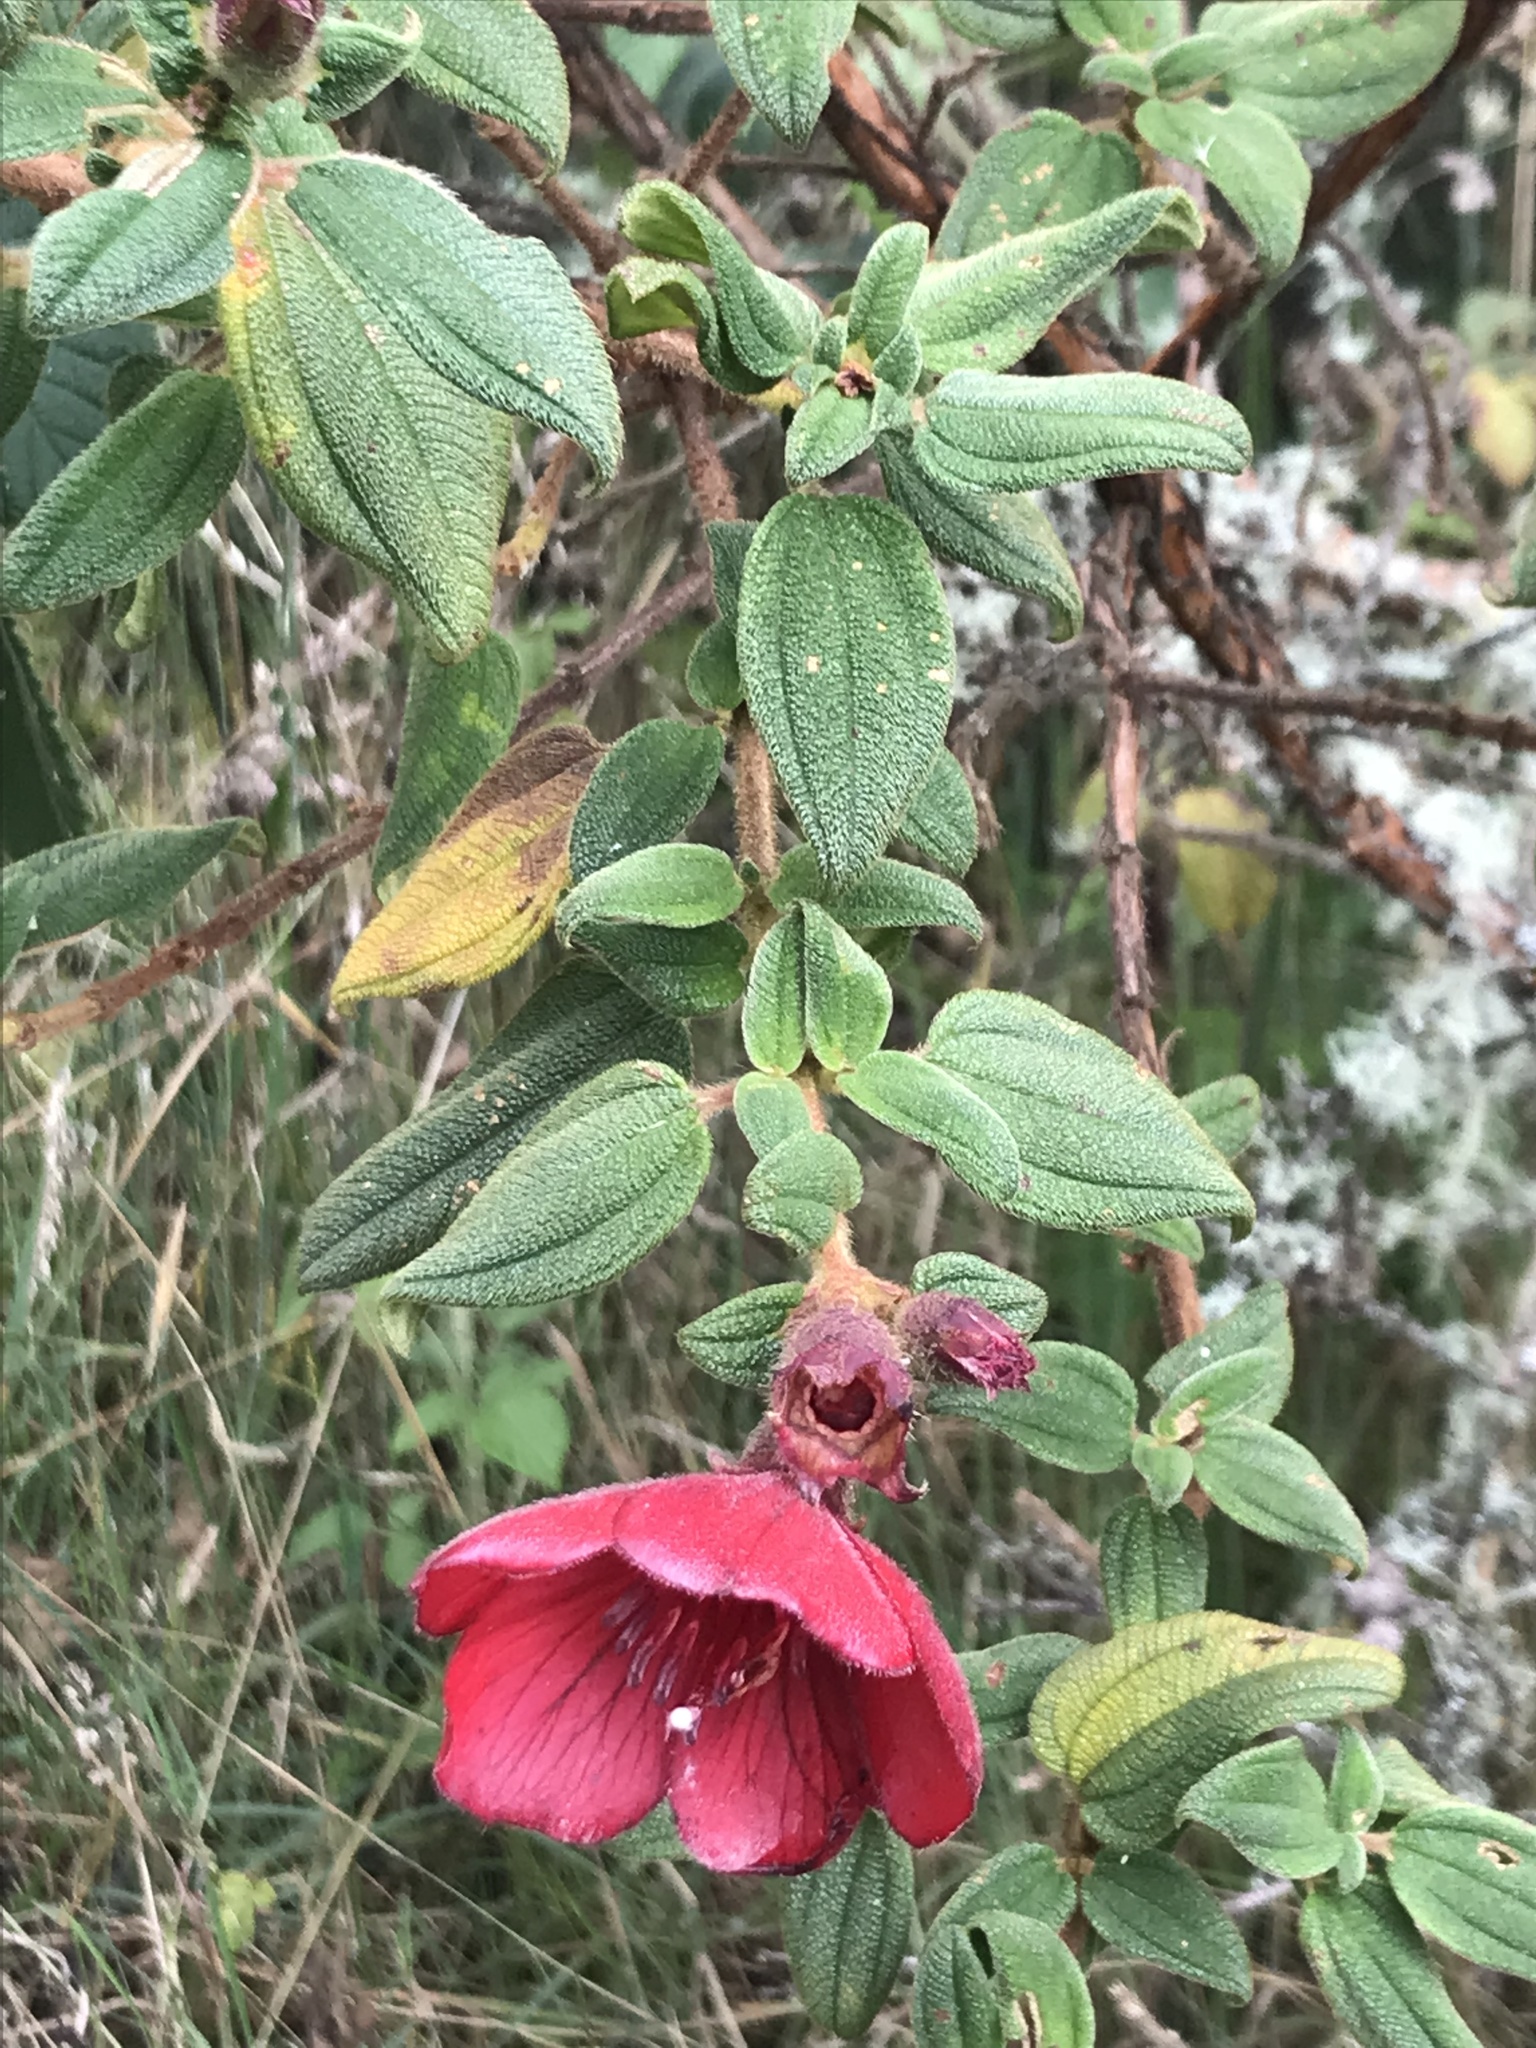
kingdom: Plantae
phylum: Tracheophyta
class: Magnoliopsida
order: Myrtales
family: Melastomataceae
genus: Chaetogastra
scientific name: Chaetogastra grossa
